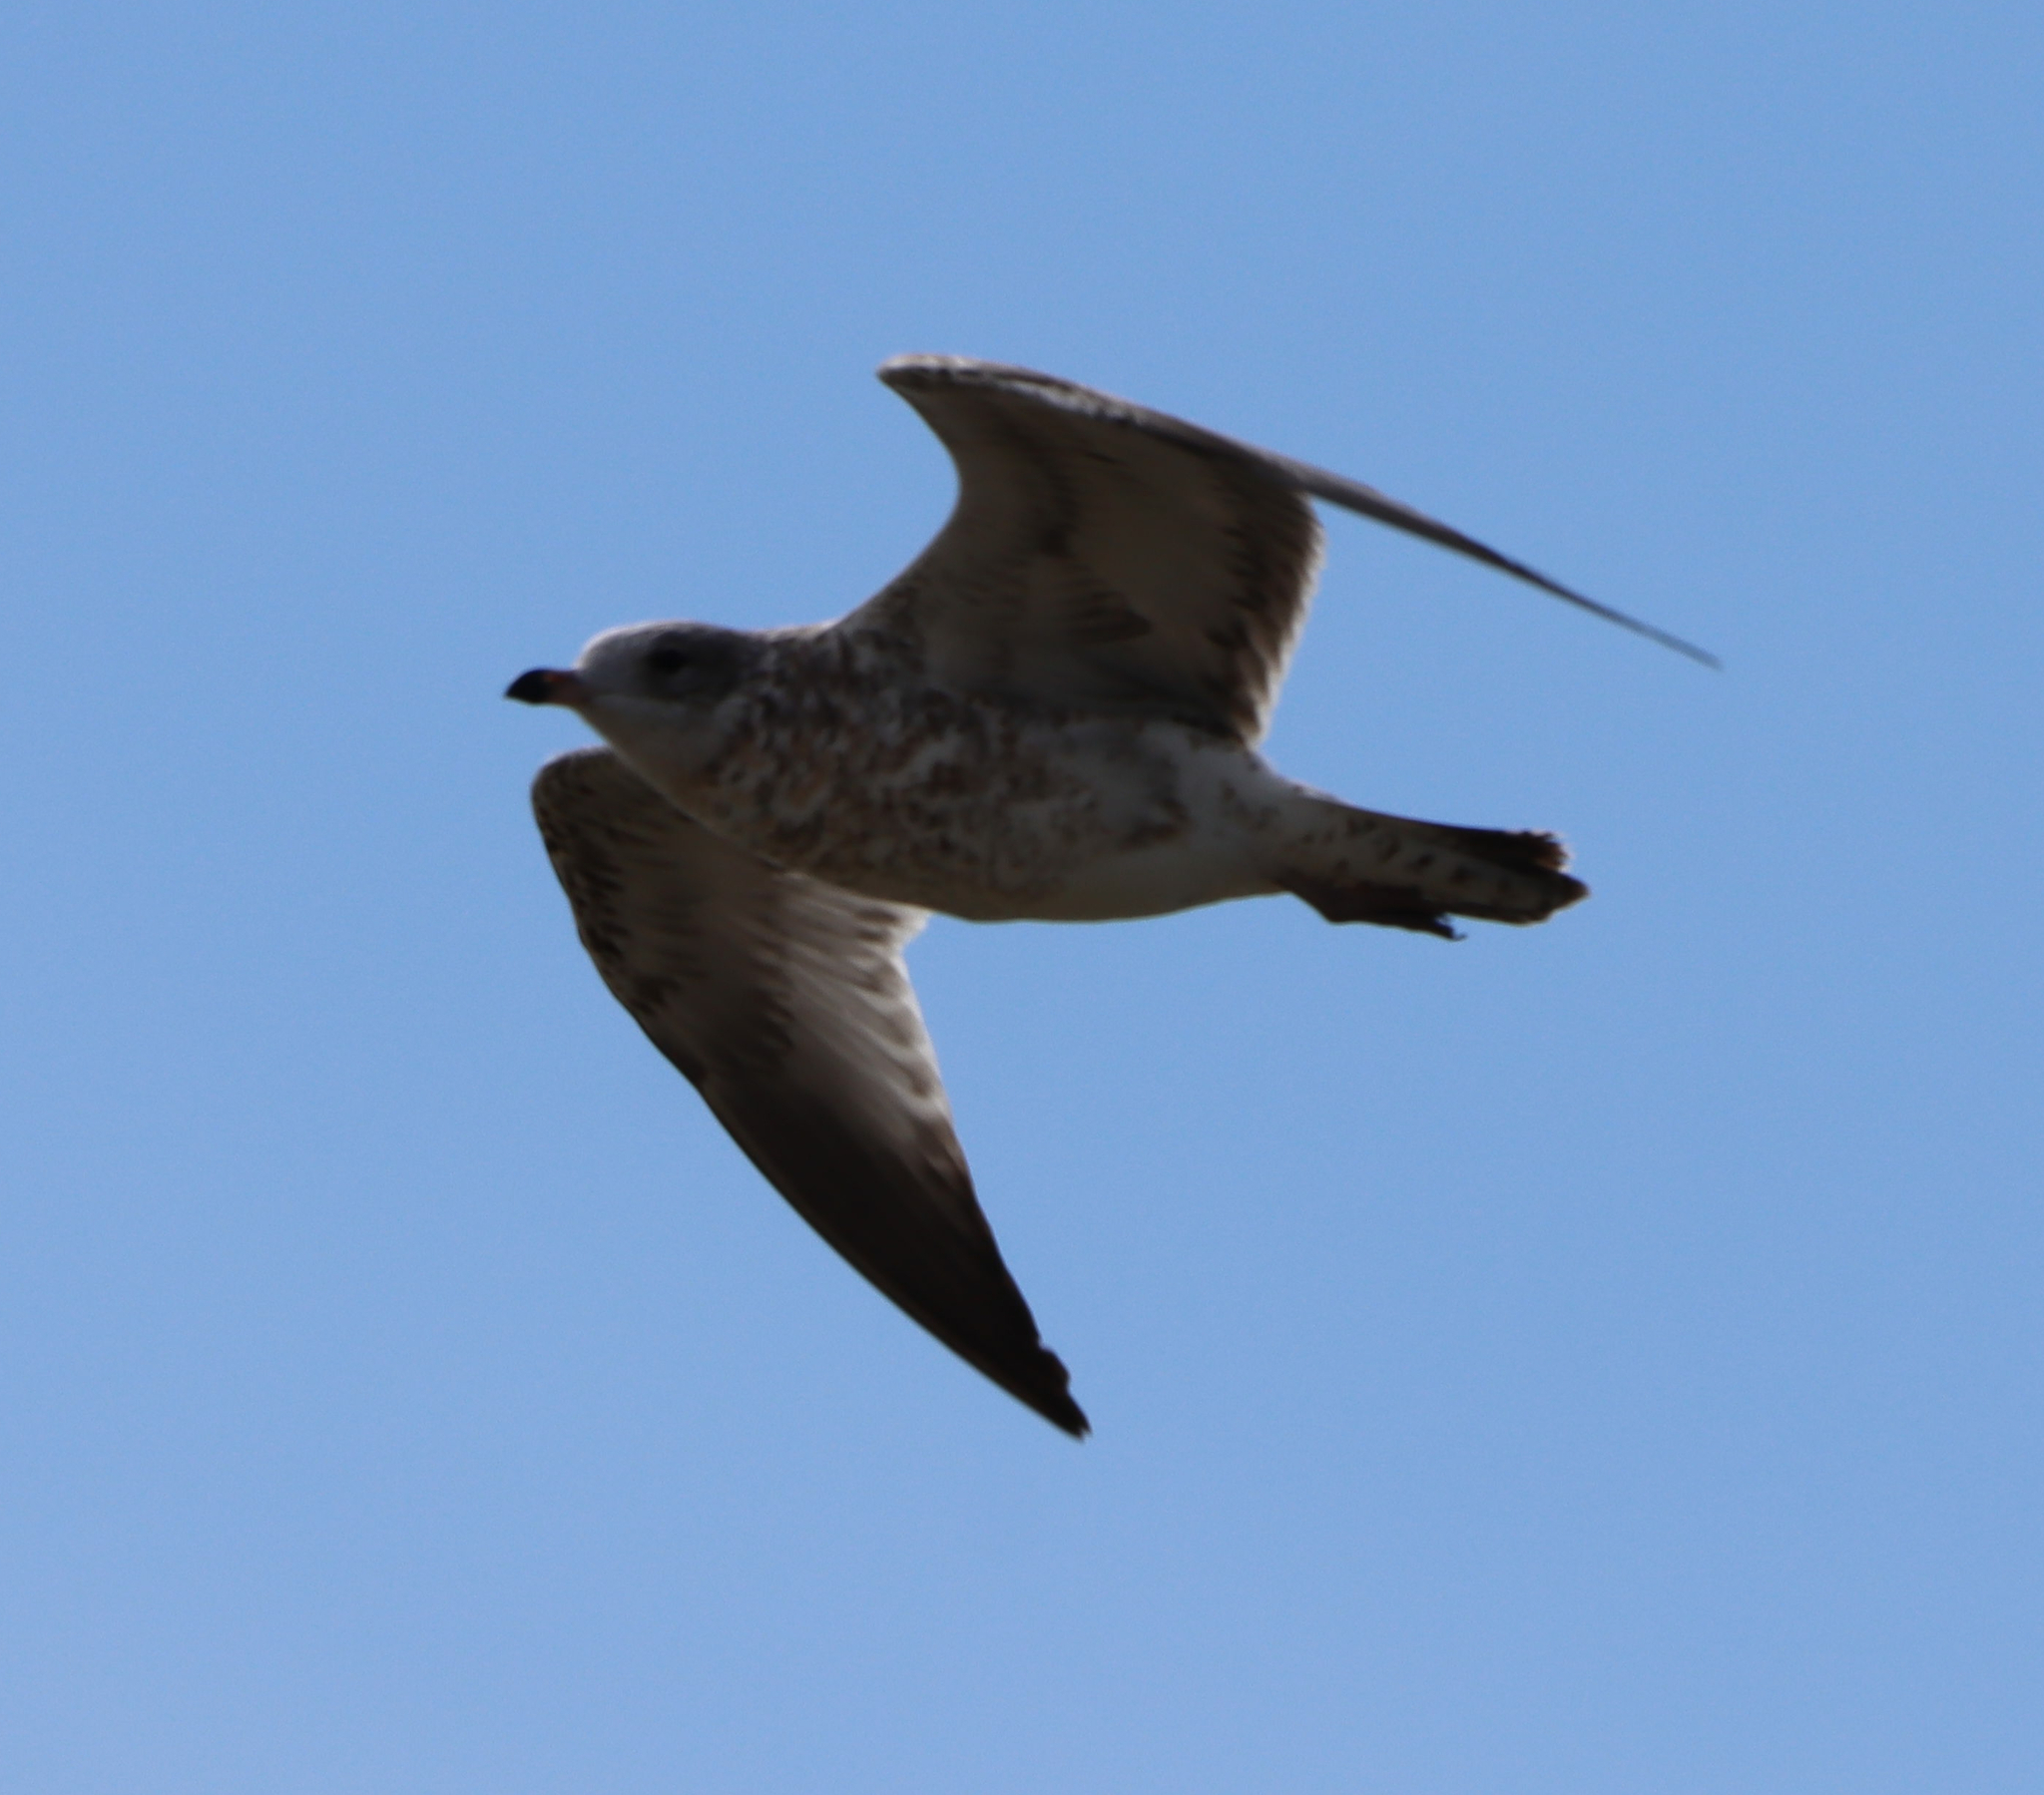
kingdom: Animalia
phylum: Chordata
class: Aves
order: Charadriiformes
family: Laridae
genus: Larus
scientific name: Larus delawarensis
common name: Ring-billed gull
